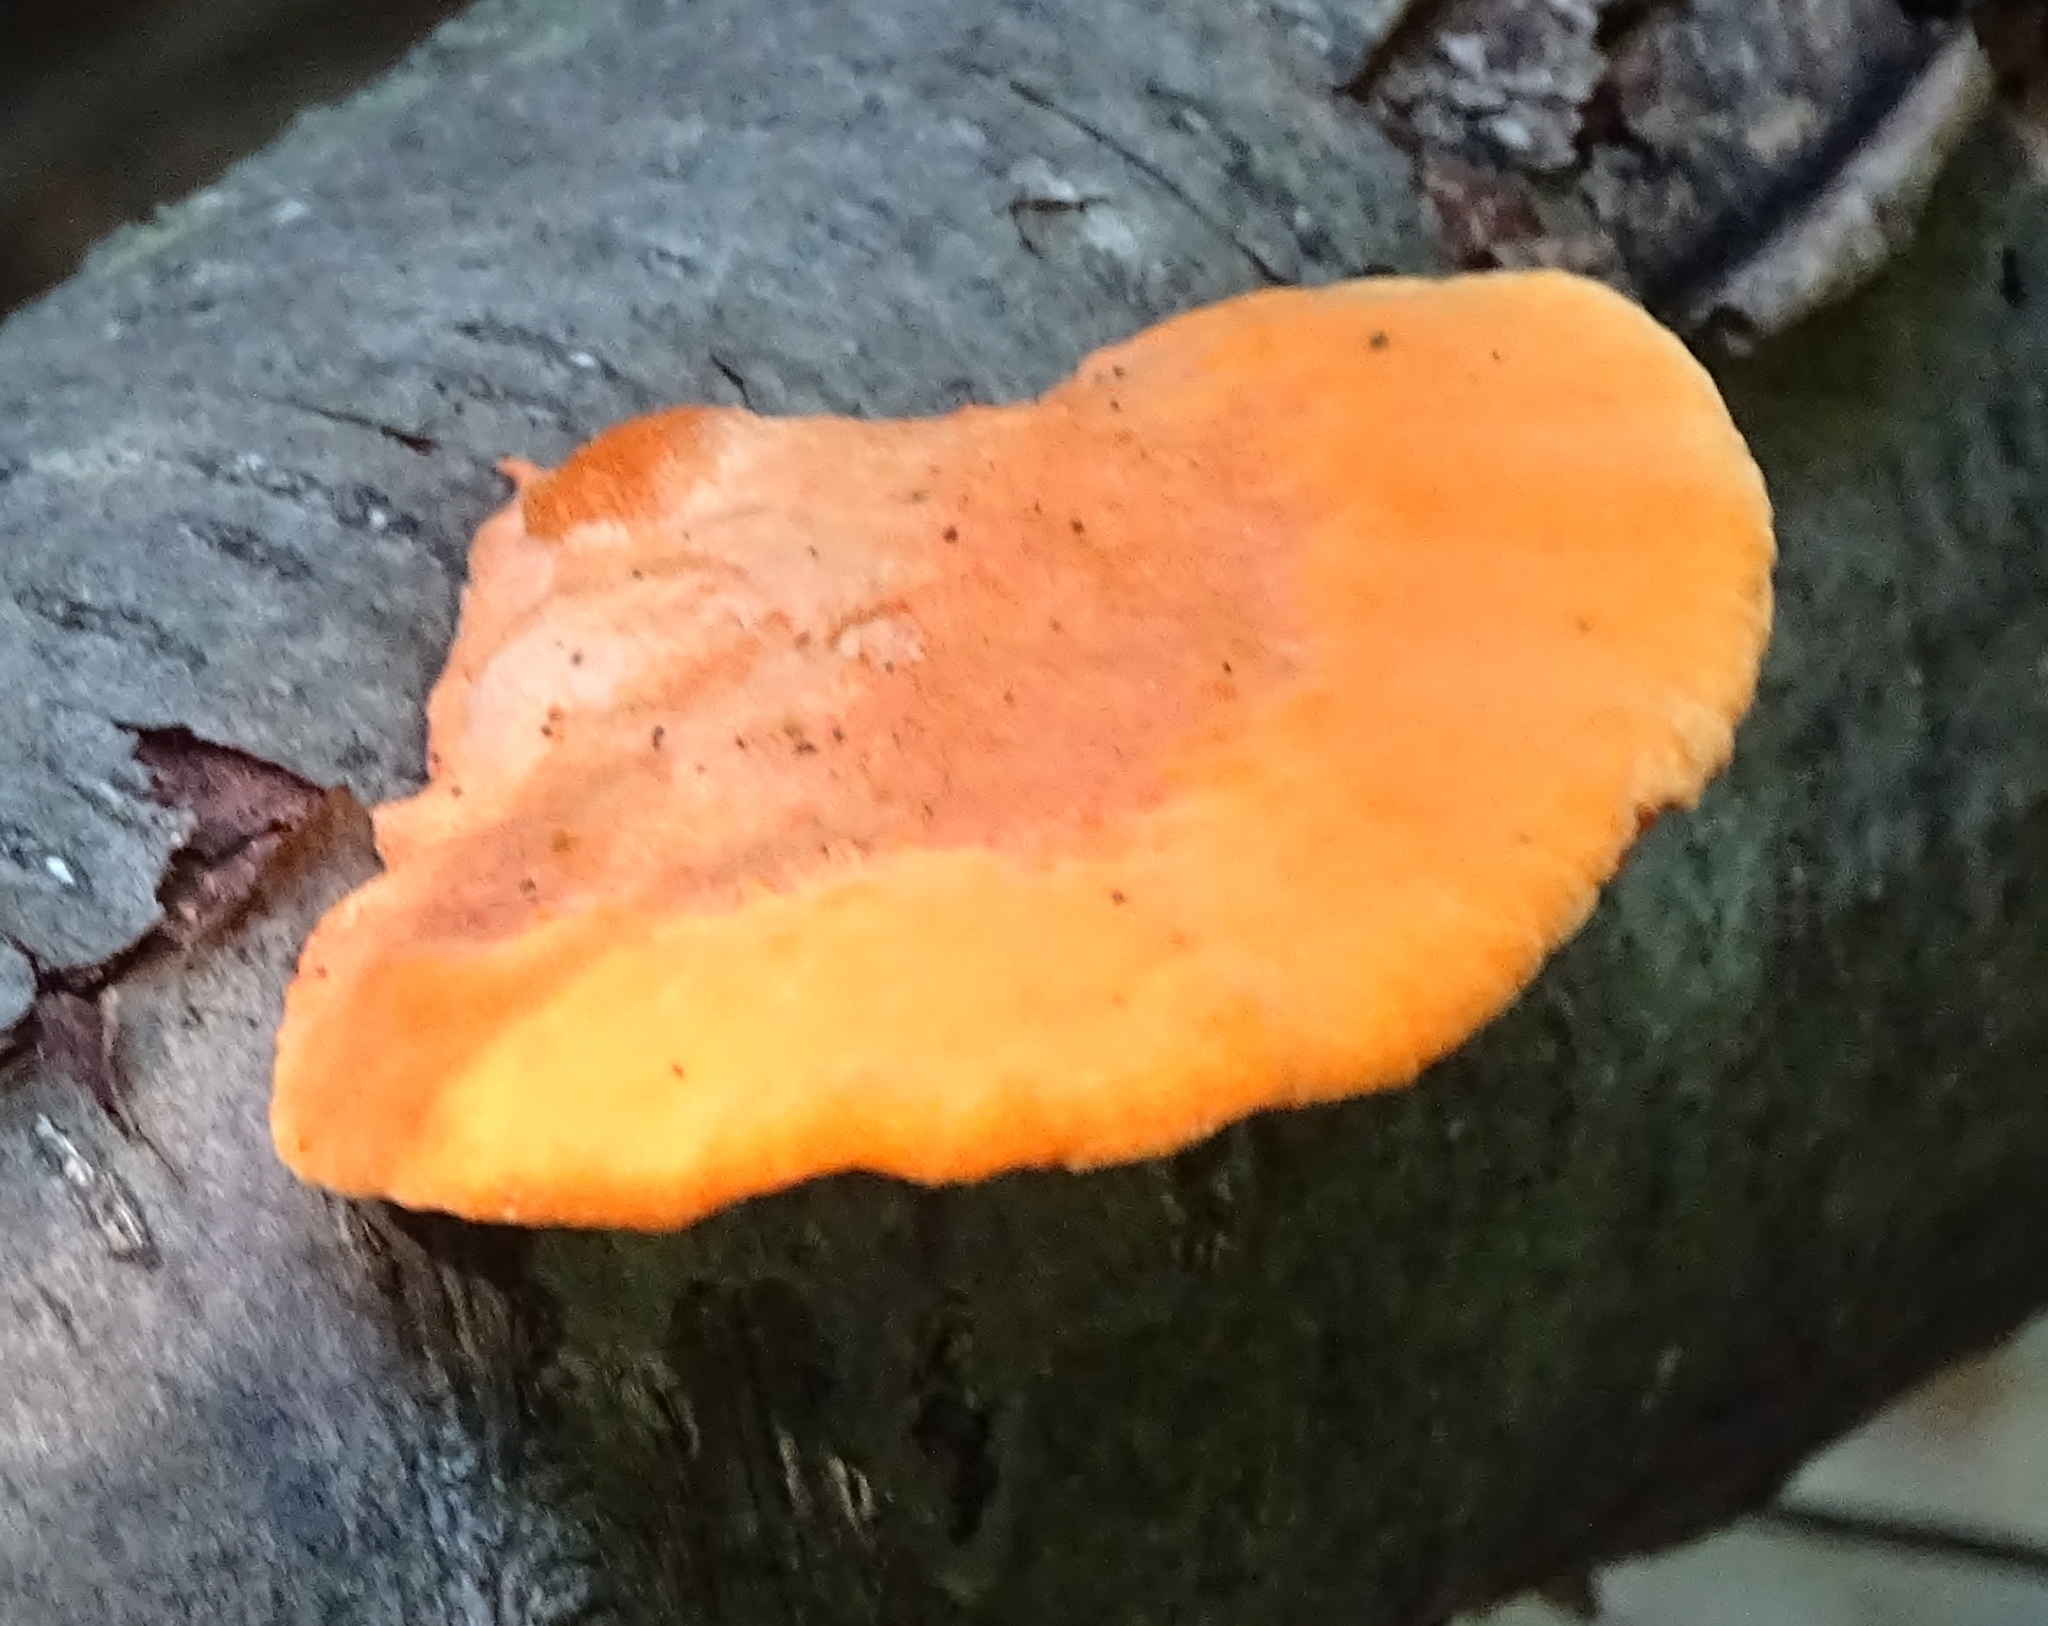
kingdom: Fungi
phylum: Basidiomycota
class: Agaricomycetes
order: Polyporales
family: Polyporaceae
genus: Trametes
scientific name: Trametes cinnabarina
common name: Northern cinnabar polypore
